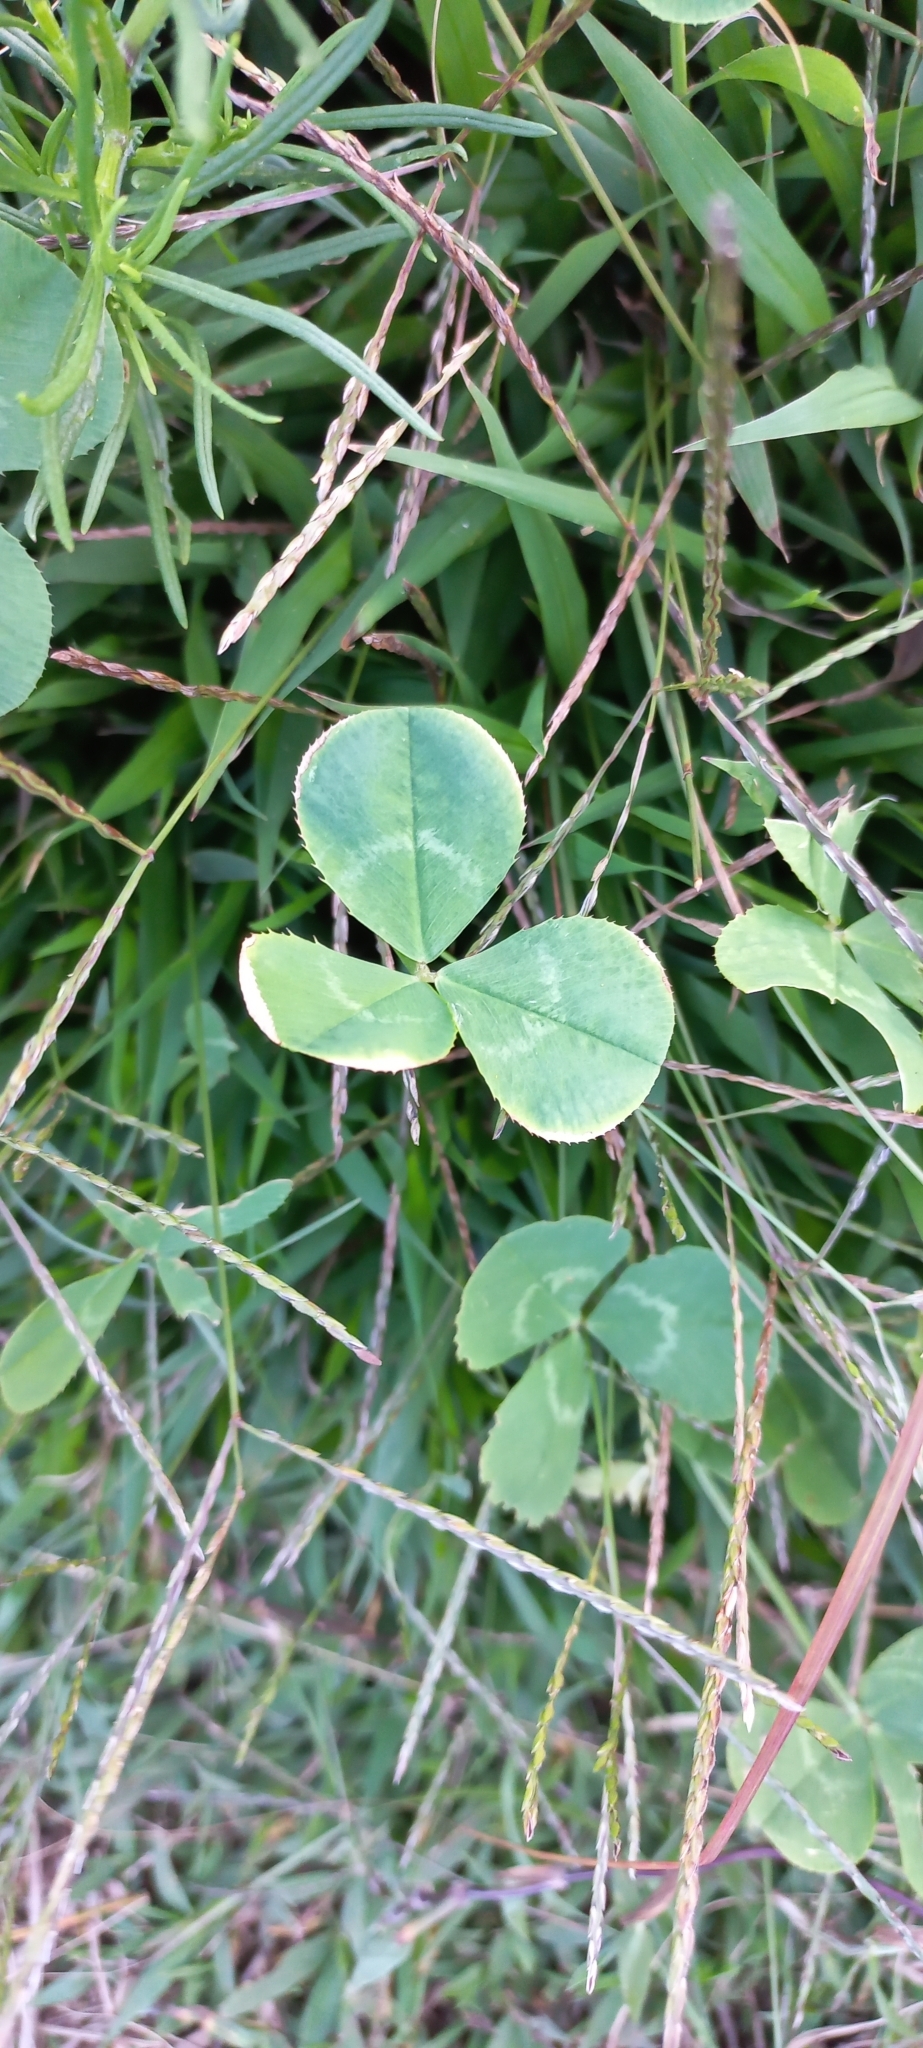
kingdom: Plantae
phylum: Tracheophyta
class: Magnoliopsida
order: Fabales
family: Fabaceae
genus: Trifolium
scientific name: Trifolium repens
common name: White clover
